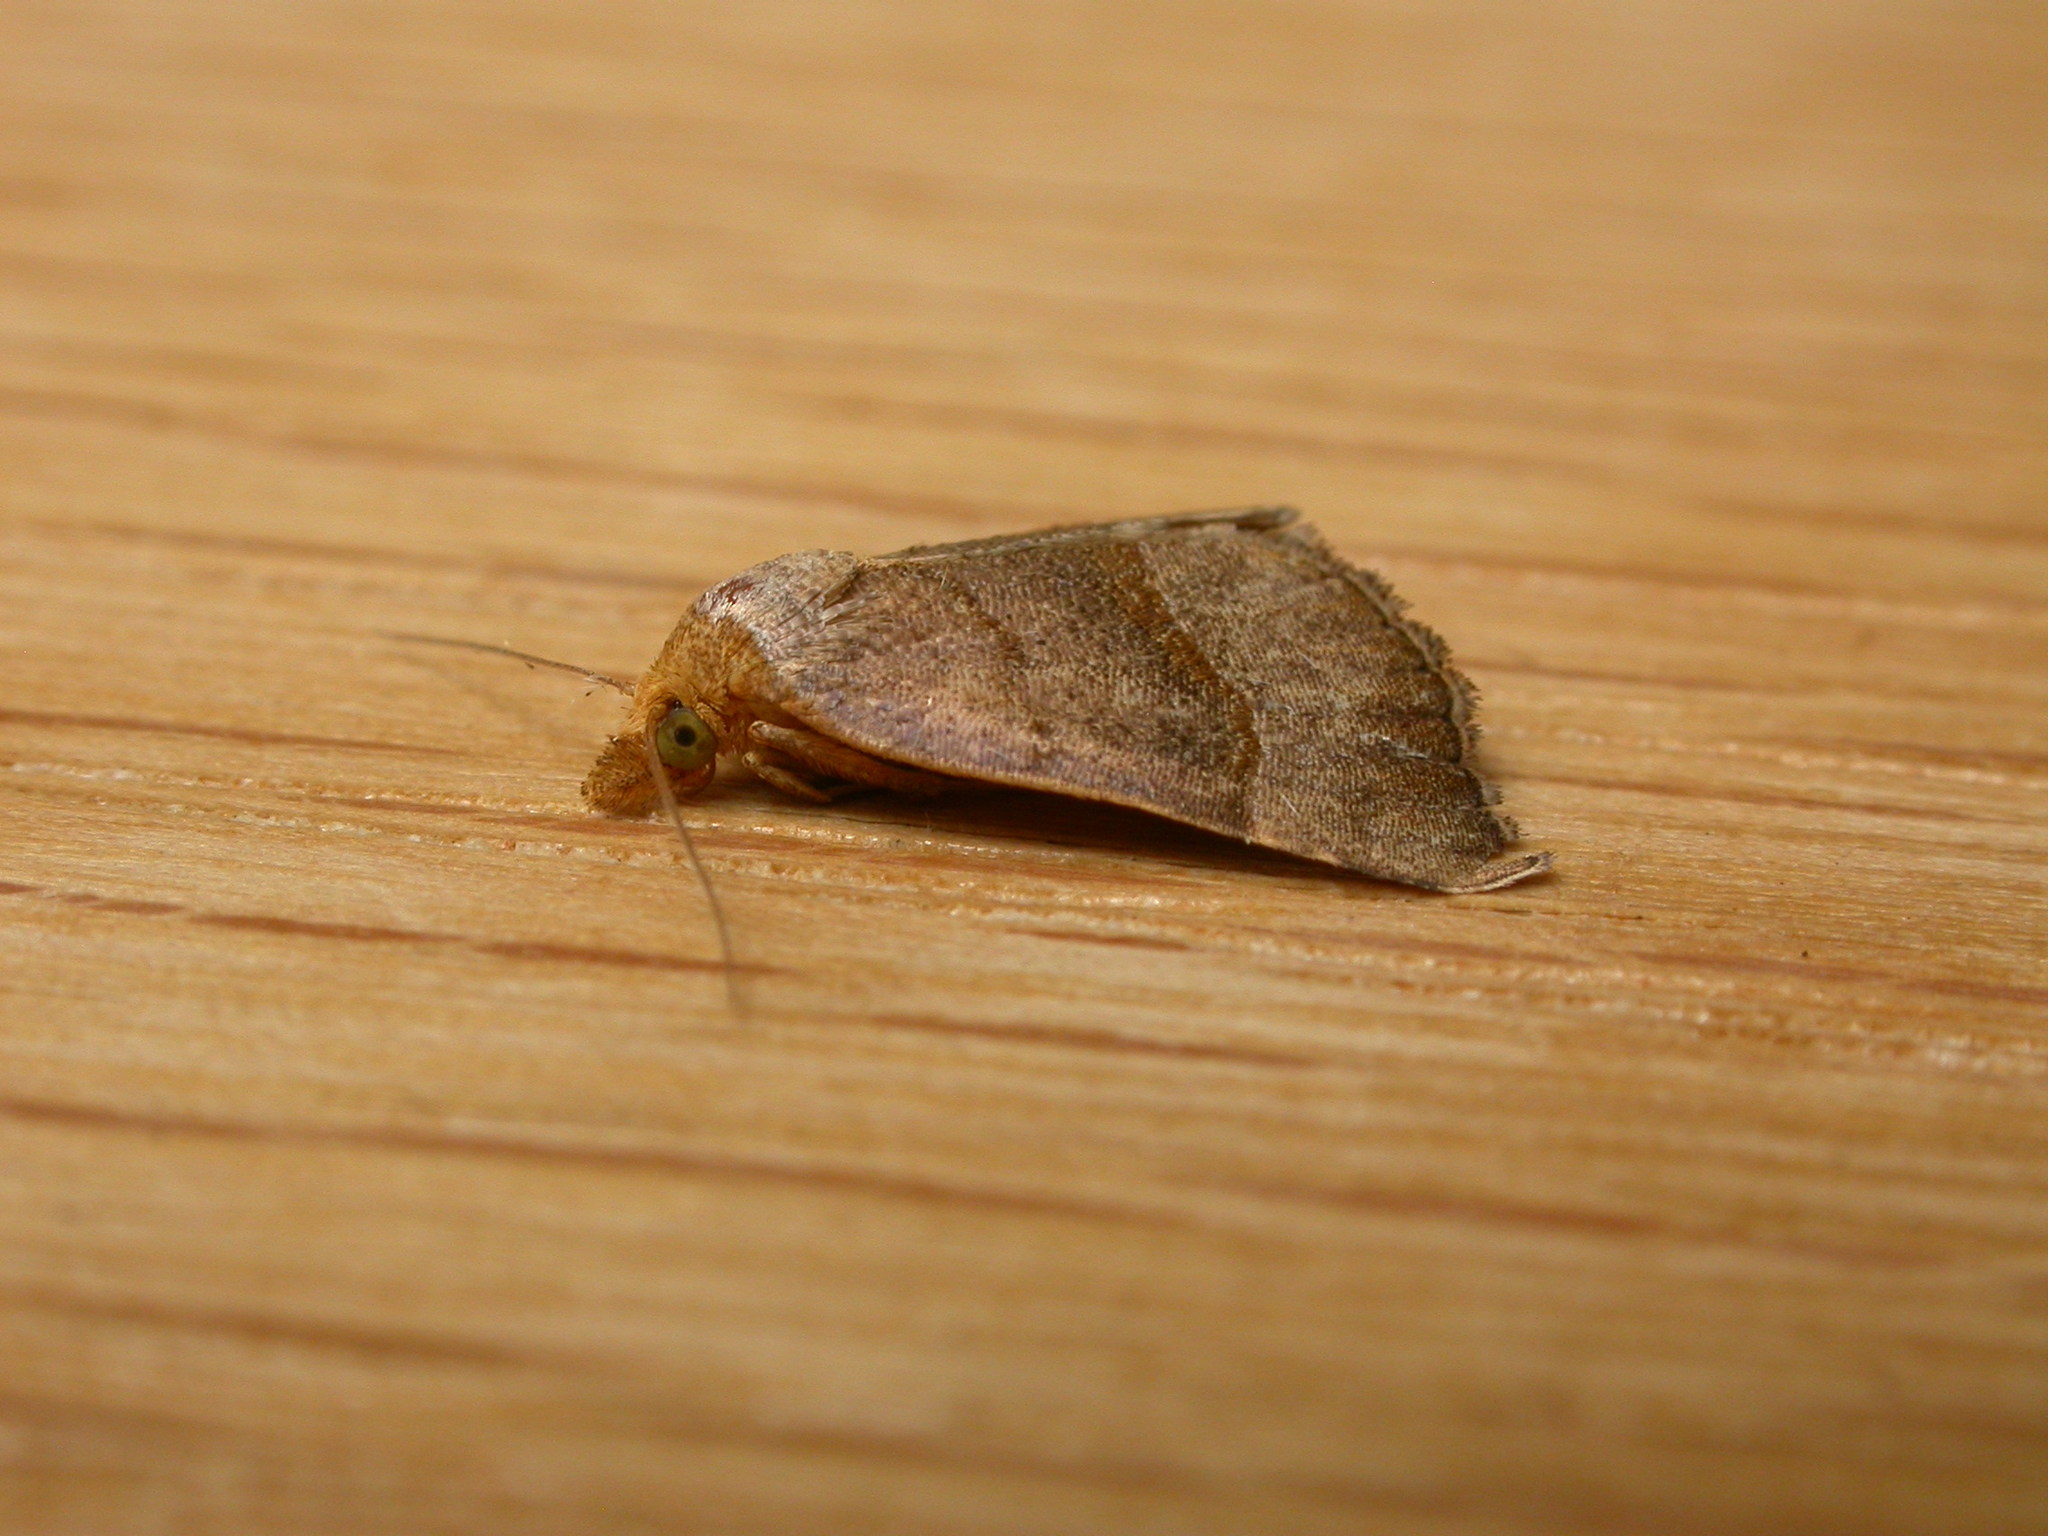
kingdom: Animalia
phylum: Arthropoda
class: Insecta
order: Lepidoptera
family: Erebidae
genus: Meranda
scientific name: Meranda susialis
